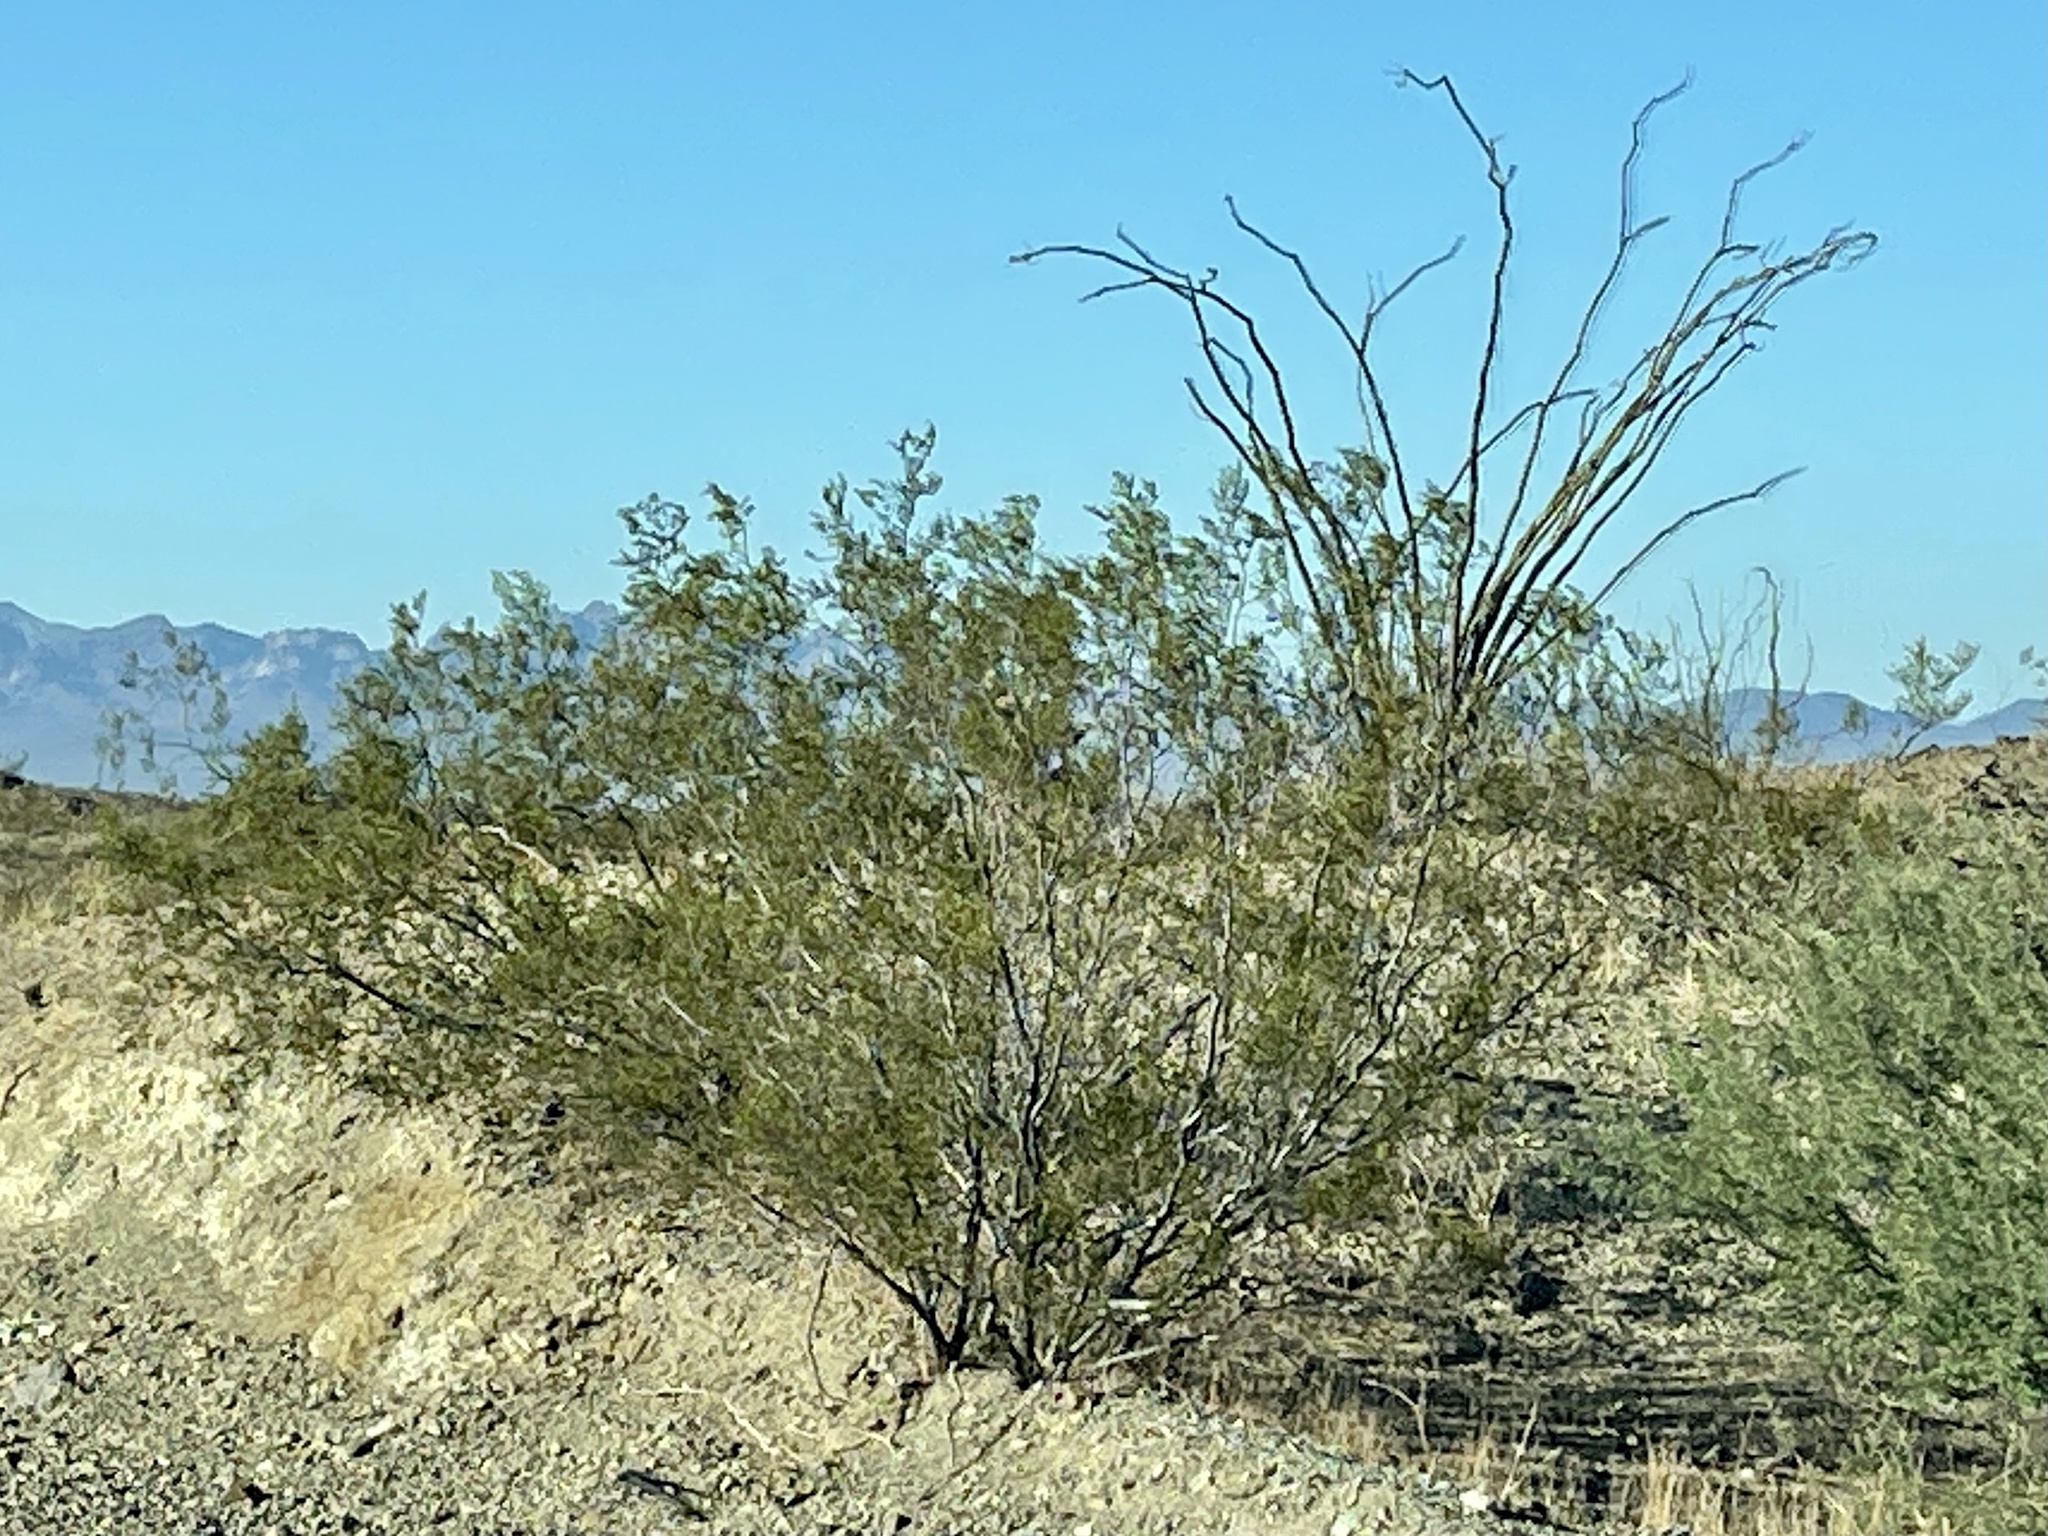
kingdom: Plantae
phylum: Tracheophyta
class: Magnoliopsida
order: Zygophyllales
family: Zygophyllaceae
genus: Larrea
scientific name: Larrea tridentata
